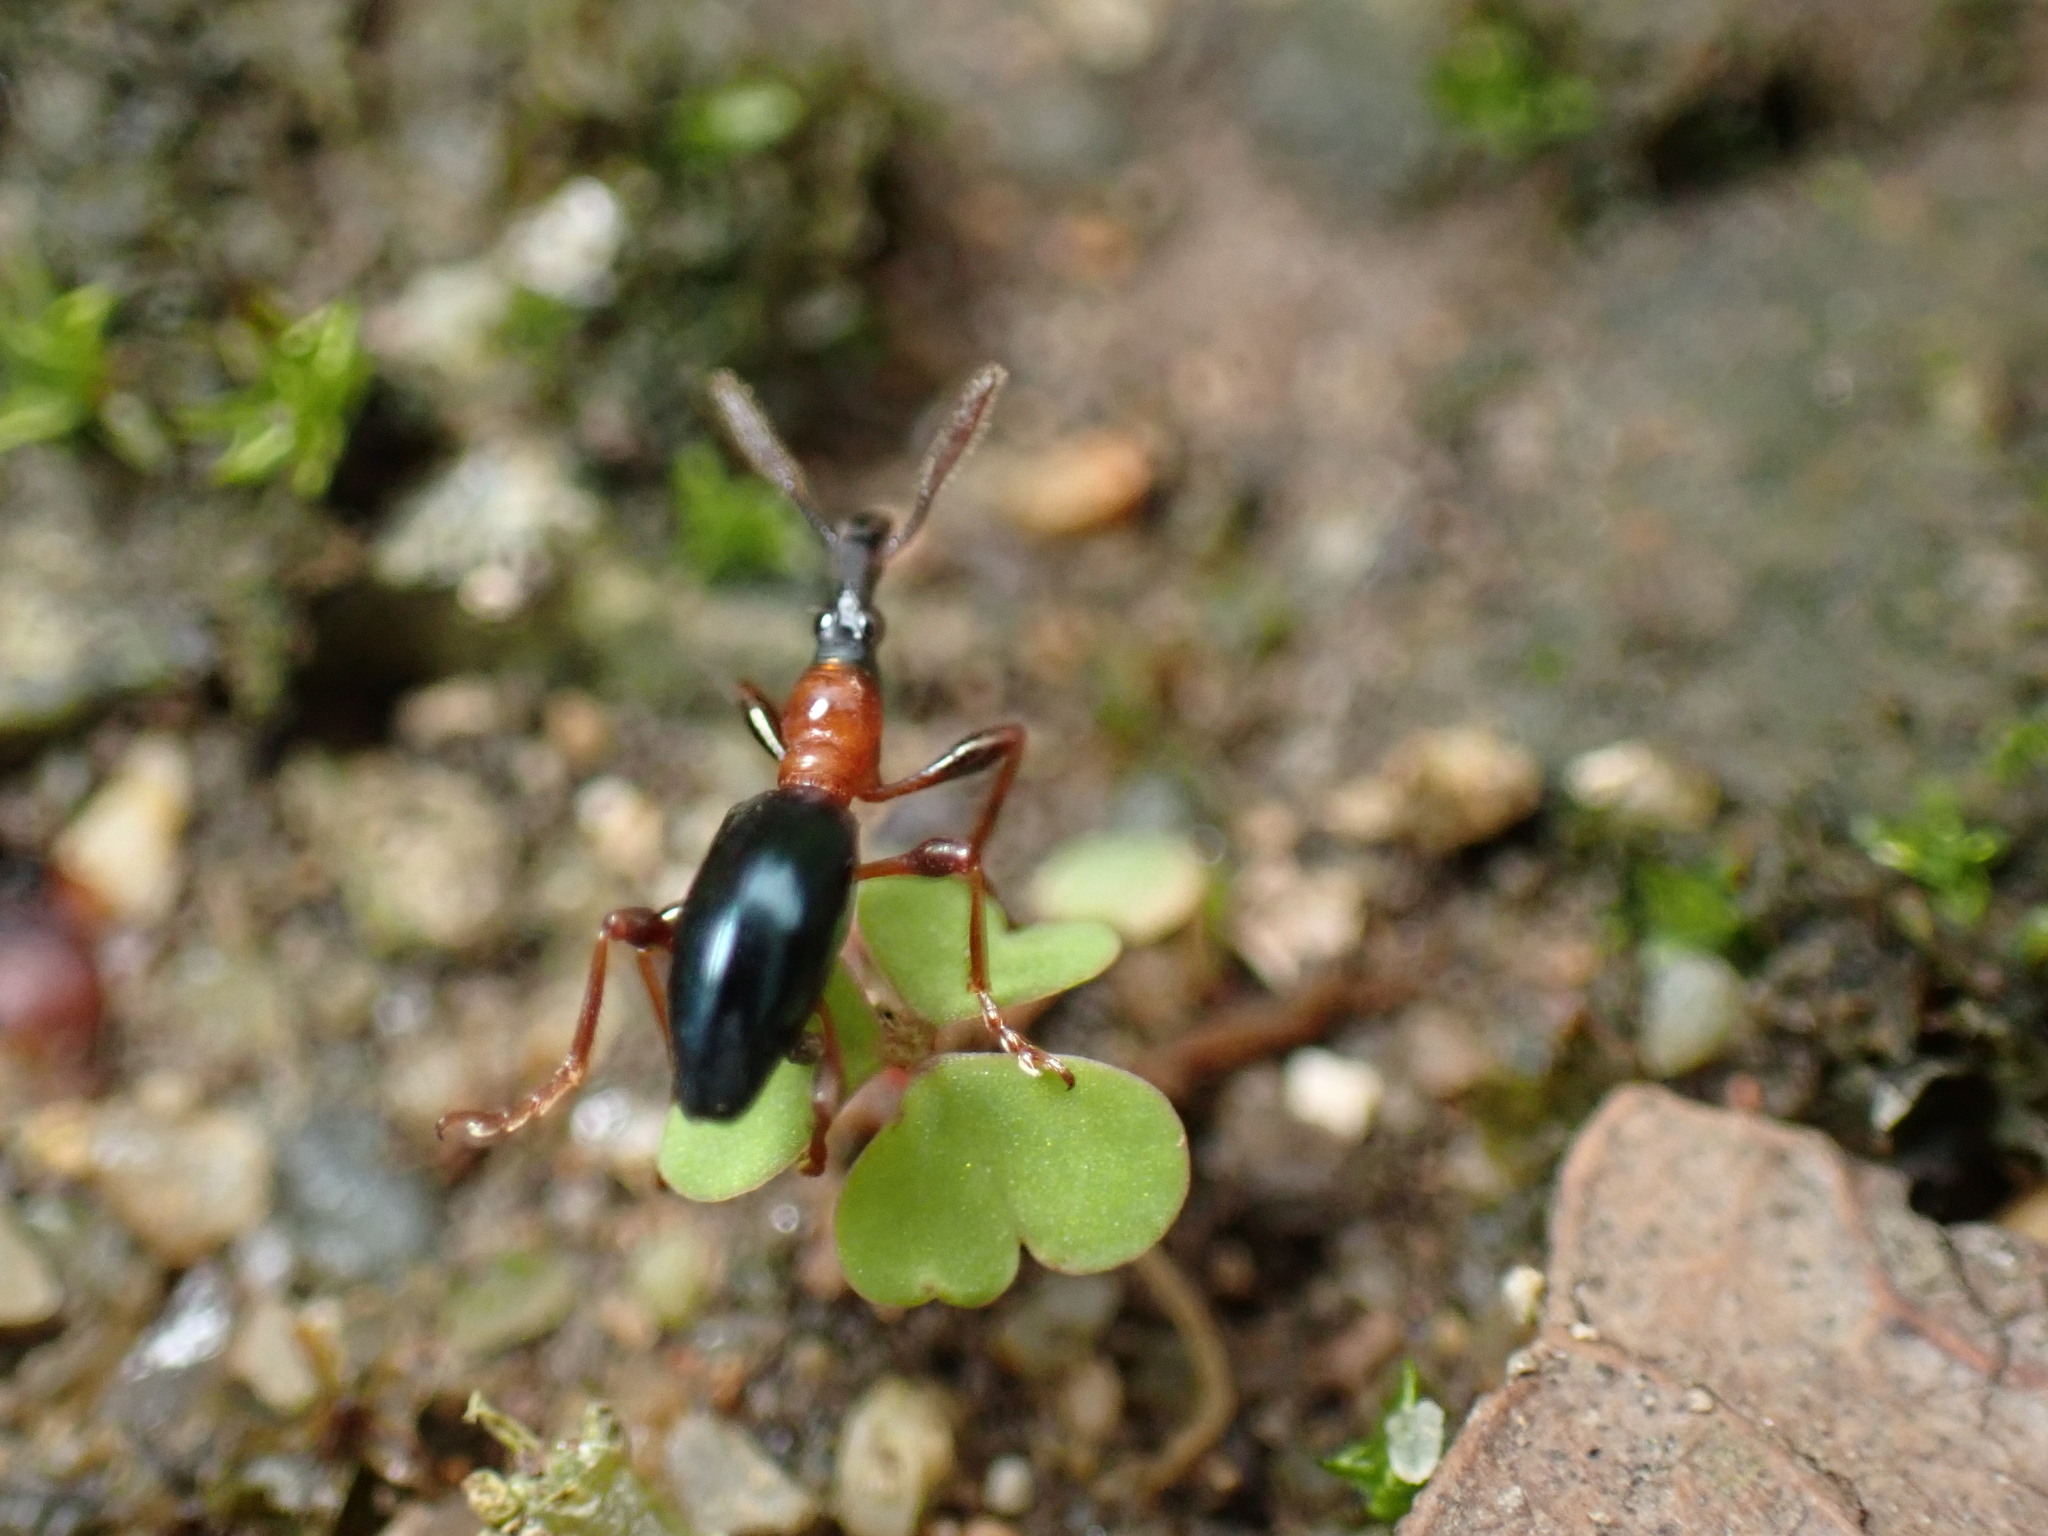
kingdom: Animalia
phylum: Arthropoda
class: Insecta
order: Coleoptera
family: Brentidae
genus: Cylas
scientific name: Cylas formicarius
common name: Sweetpotato weevil
